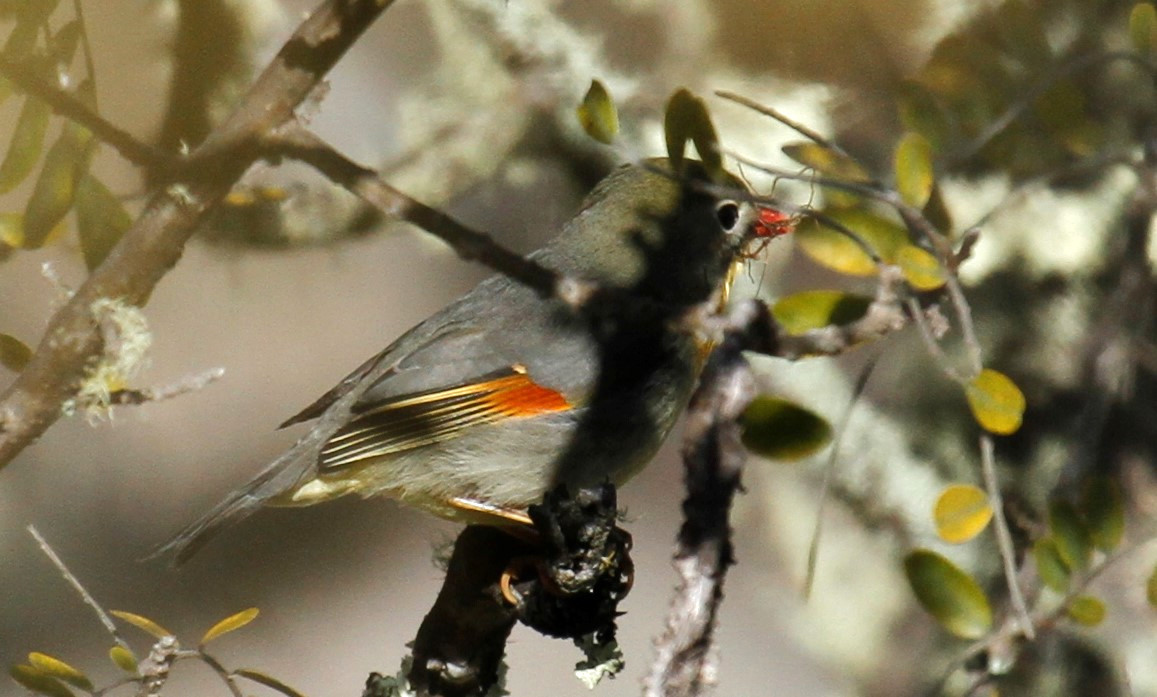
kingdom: Animalia
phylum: Chordata
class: Aves
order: Passeriformes
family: Leiothrichidae
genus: Leiothrix
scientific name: Leiothrix lutea
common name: Red-billed leiothrix
